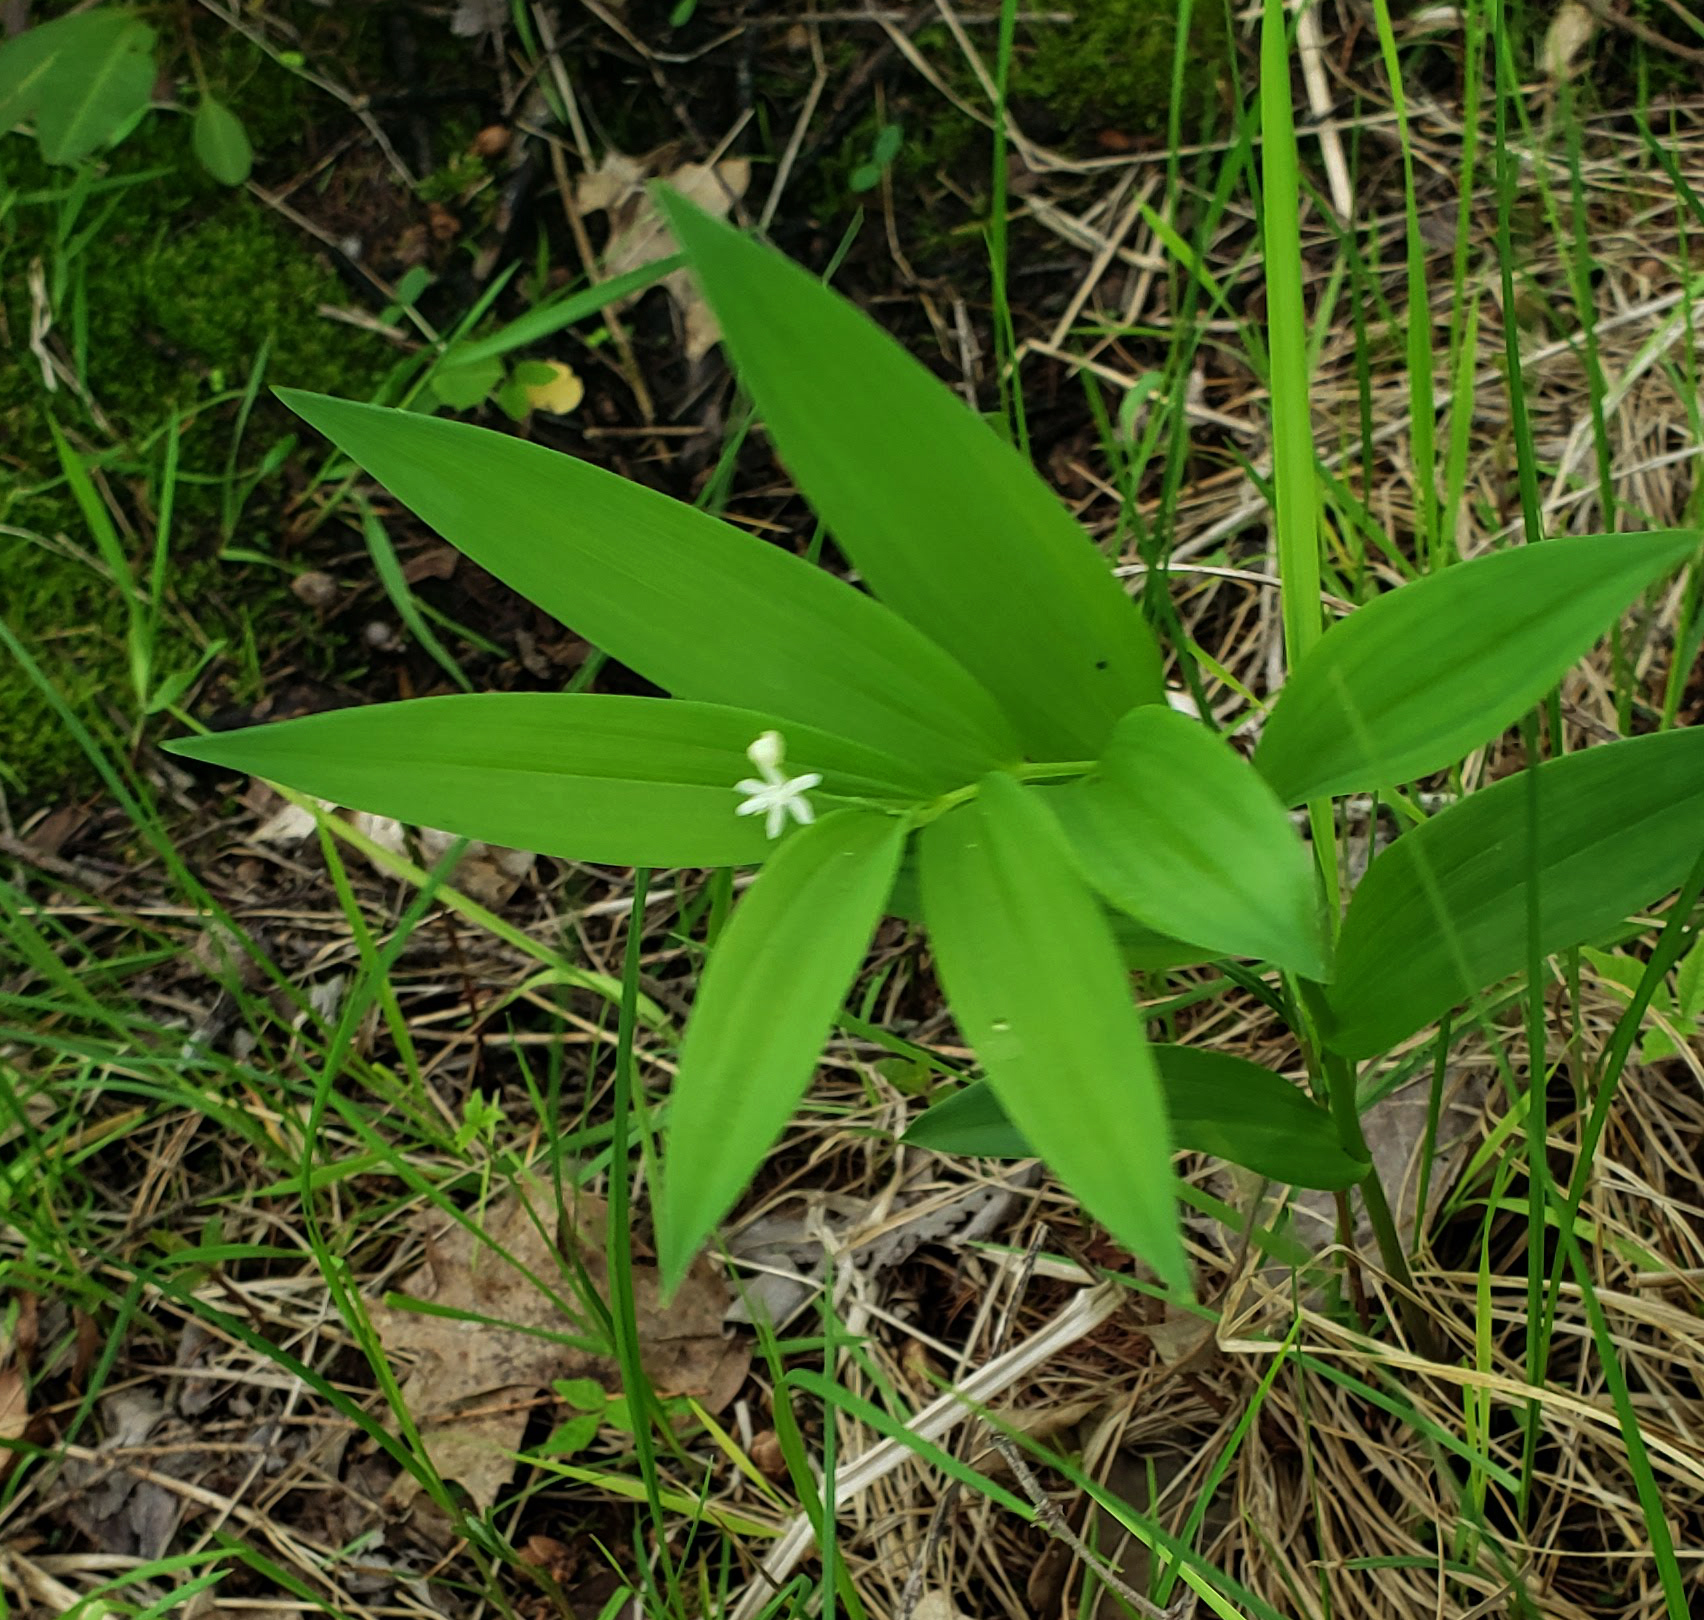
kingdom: Plantae
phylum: Tracheophyta
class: Liliopsida
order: Asparagales
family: Asparagaceae
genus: Maianthemum
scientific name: Maianthemum stellatum
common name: Little false solomon's seal
